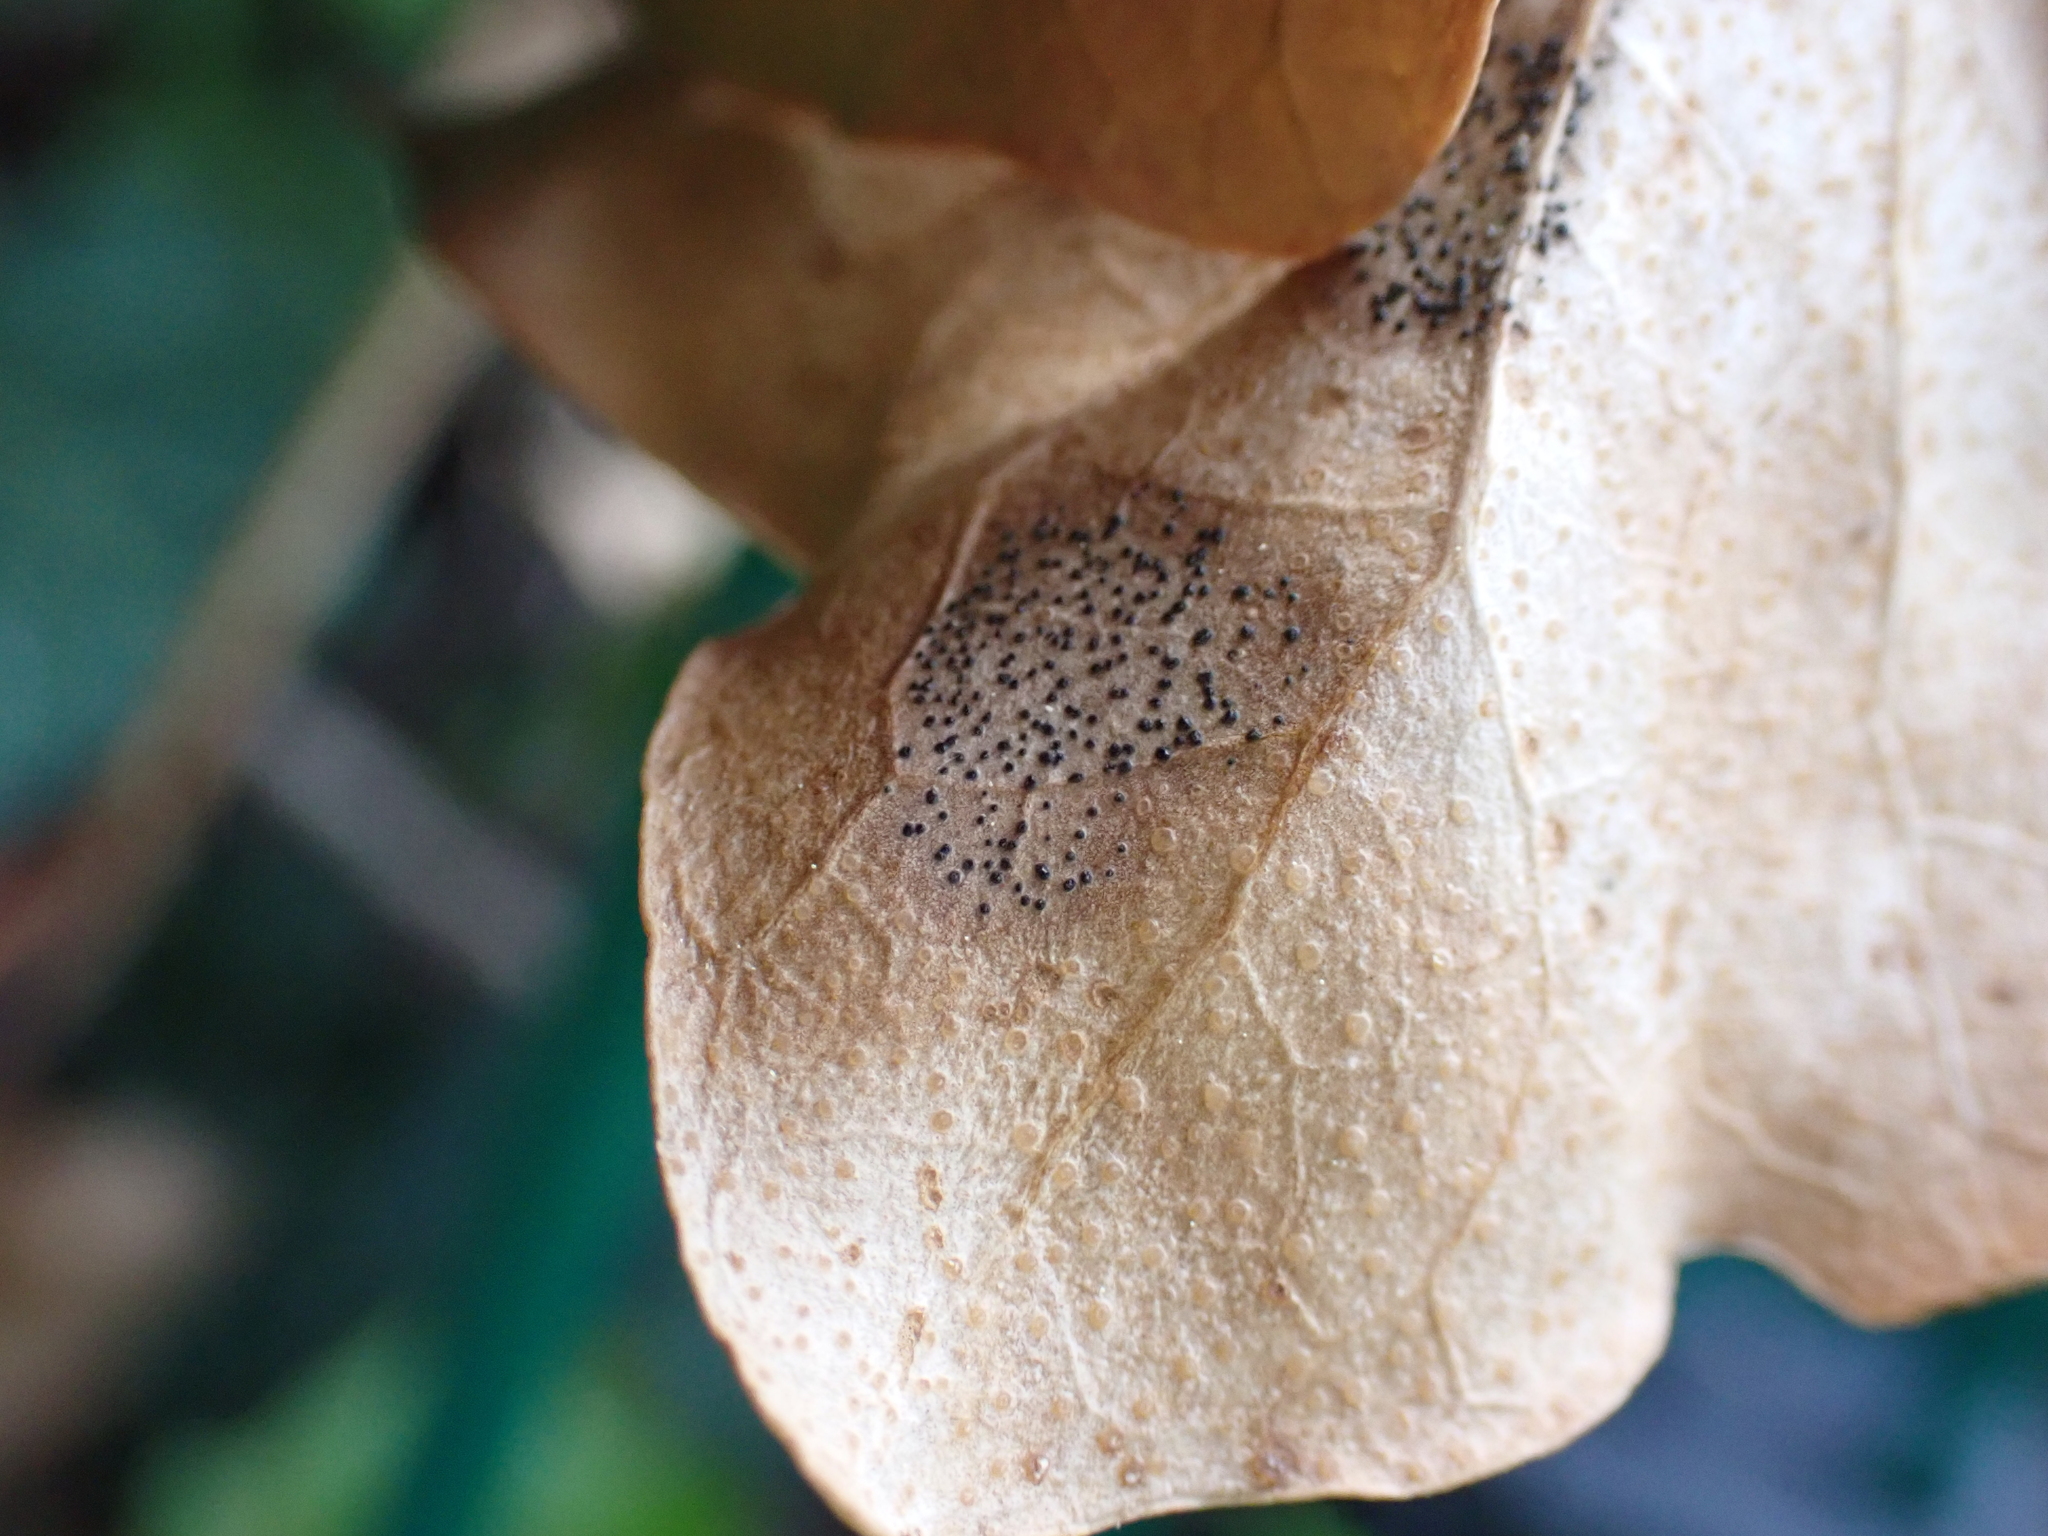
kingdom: Fungi
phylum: Ascomycota
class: Leotiomycetes
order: Helotiales
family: Cenangiaceae
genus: Trochila
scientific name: Trochila craterium
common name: Ivy speckle
